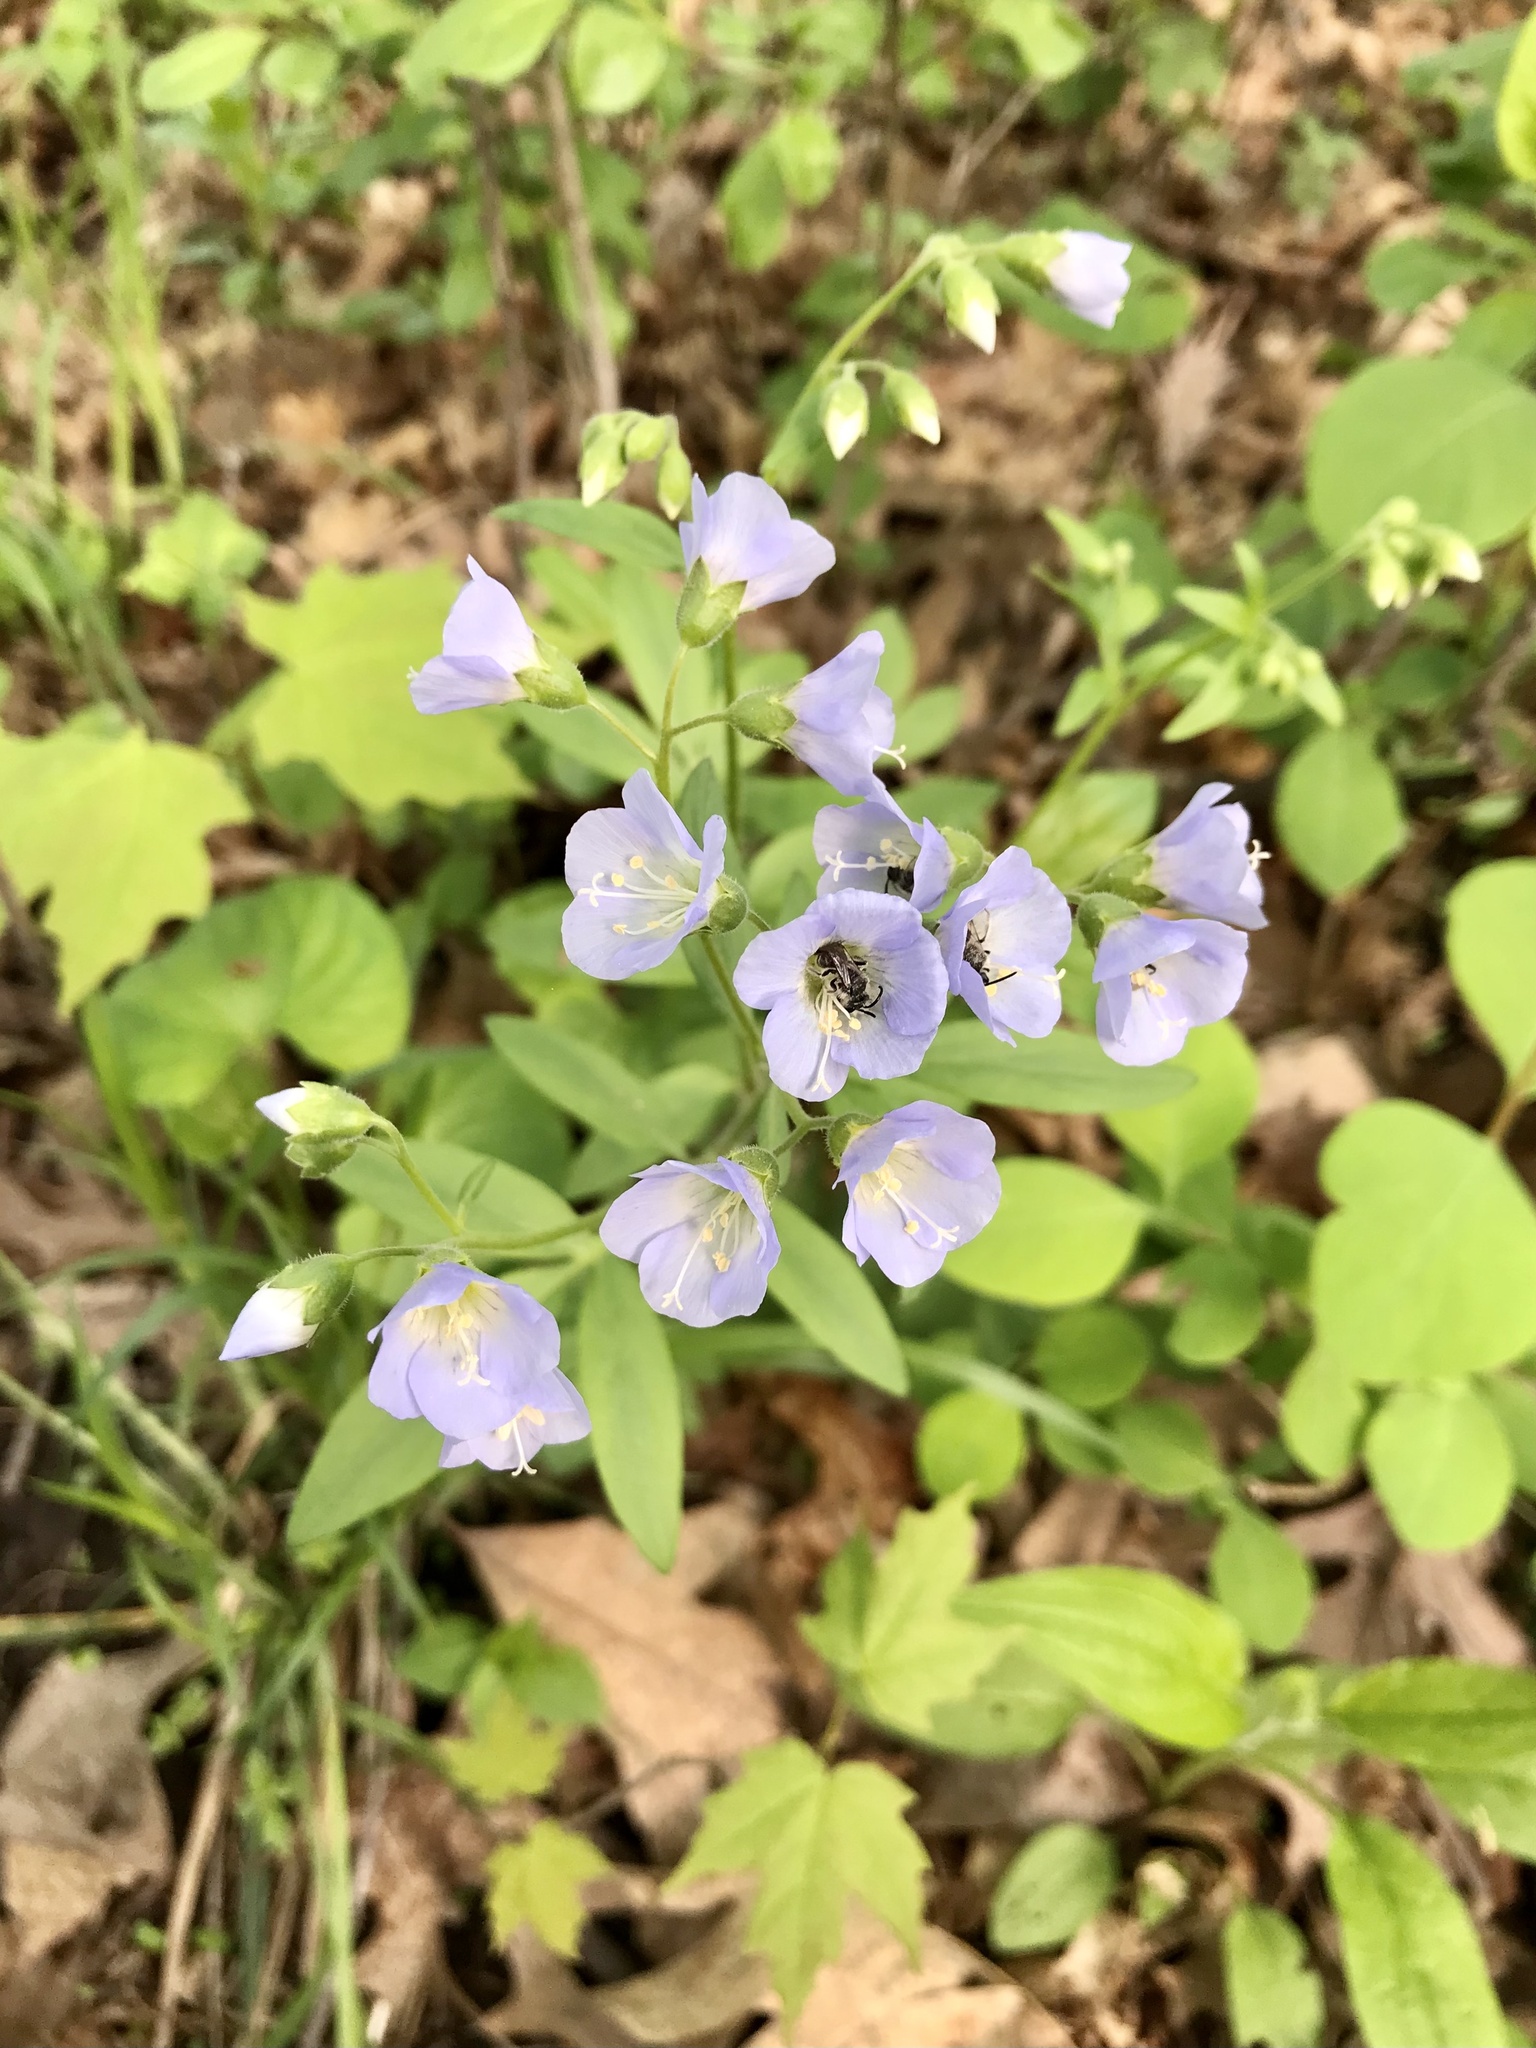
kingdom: Plantae
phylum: Tracheophyta
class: Magnoliopsida
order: Ericales
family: Polemoniaceae
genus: Polemonium
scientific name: Polemonium reptans
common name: Creeping jacob's-ladder
